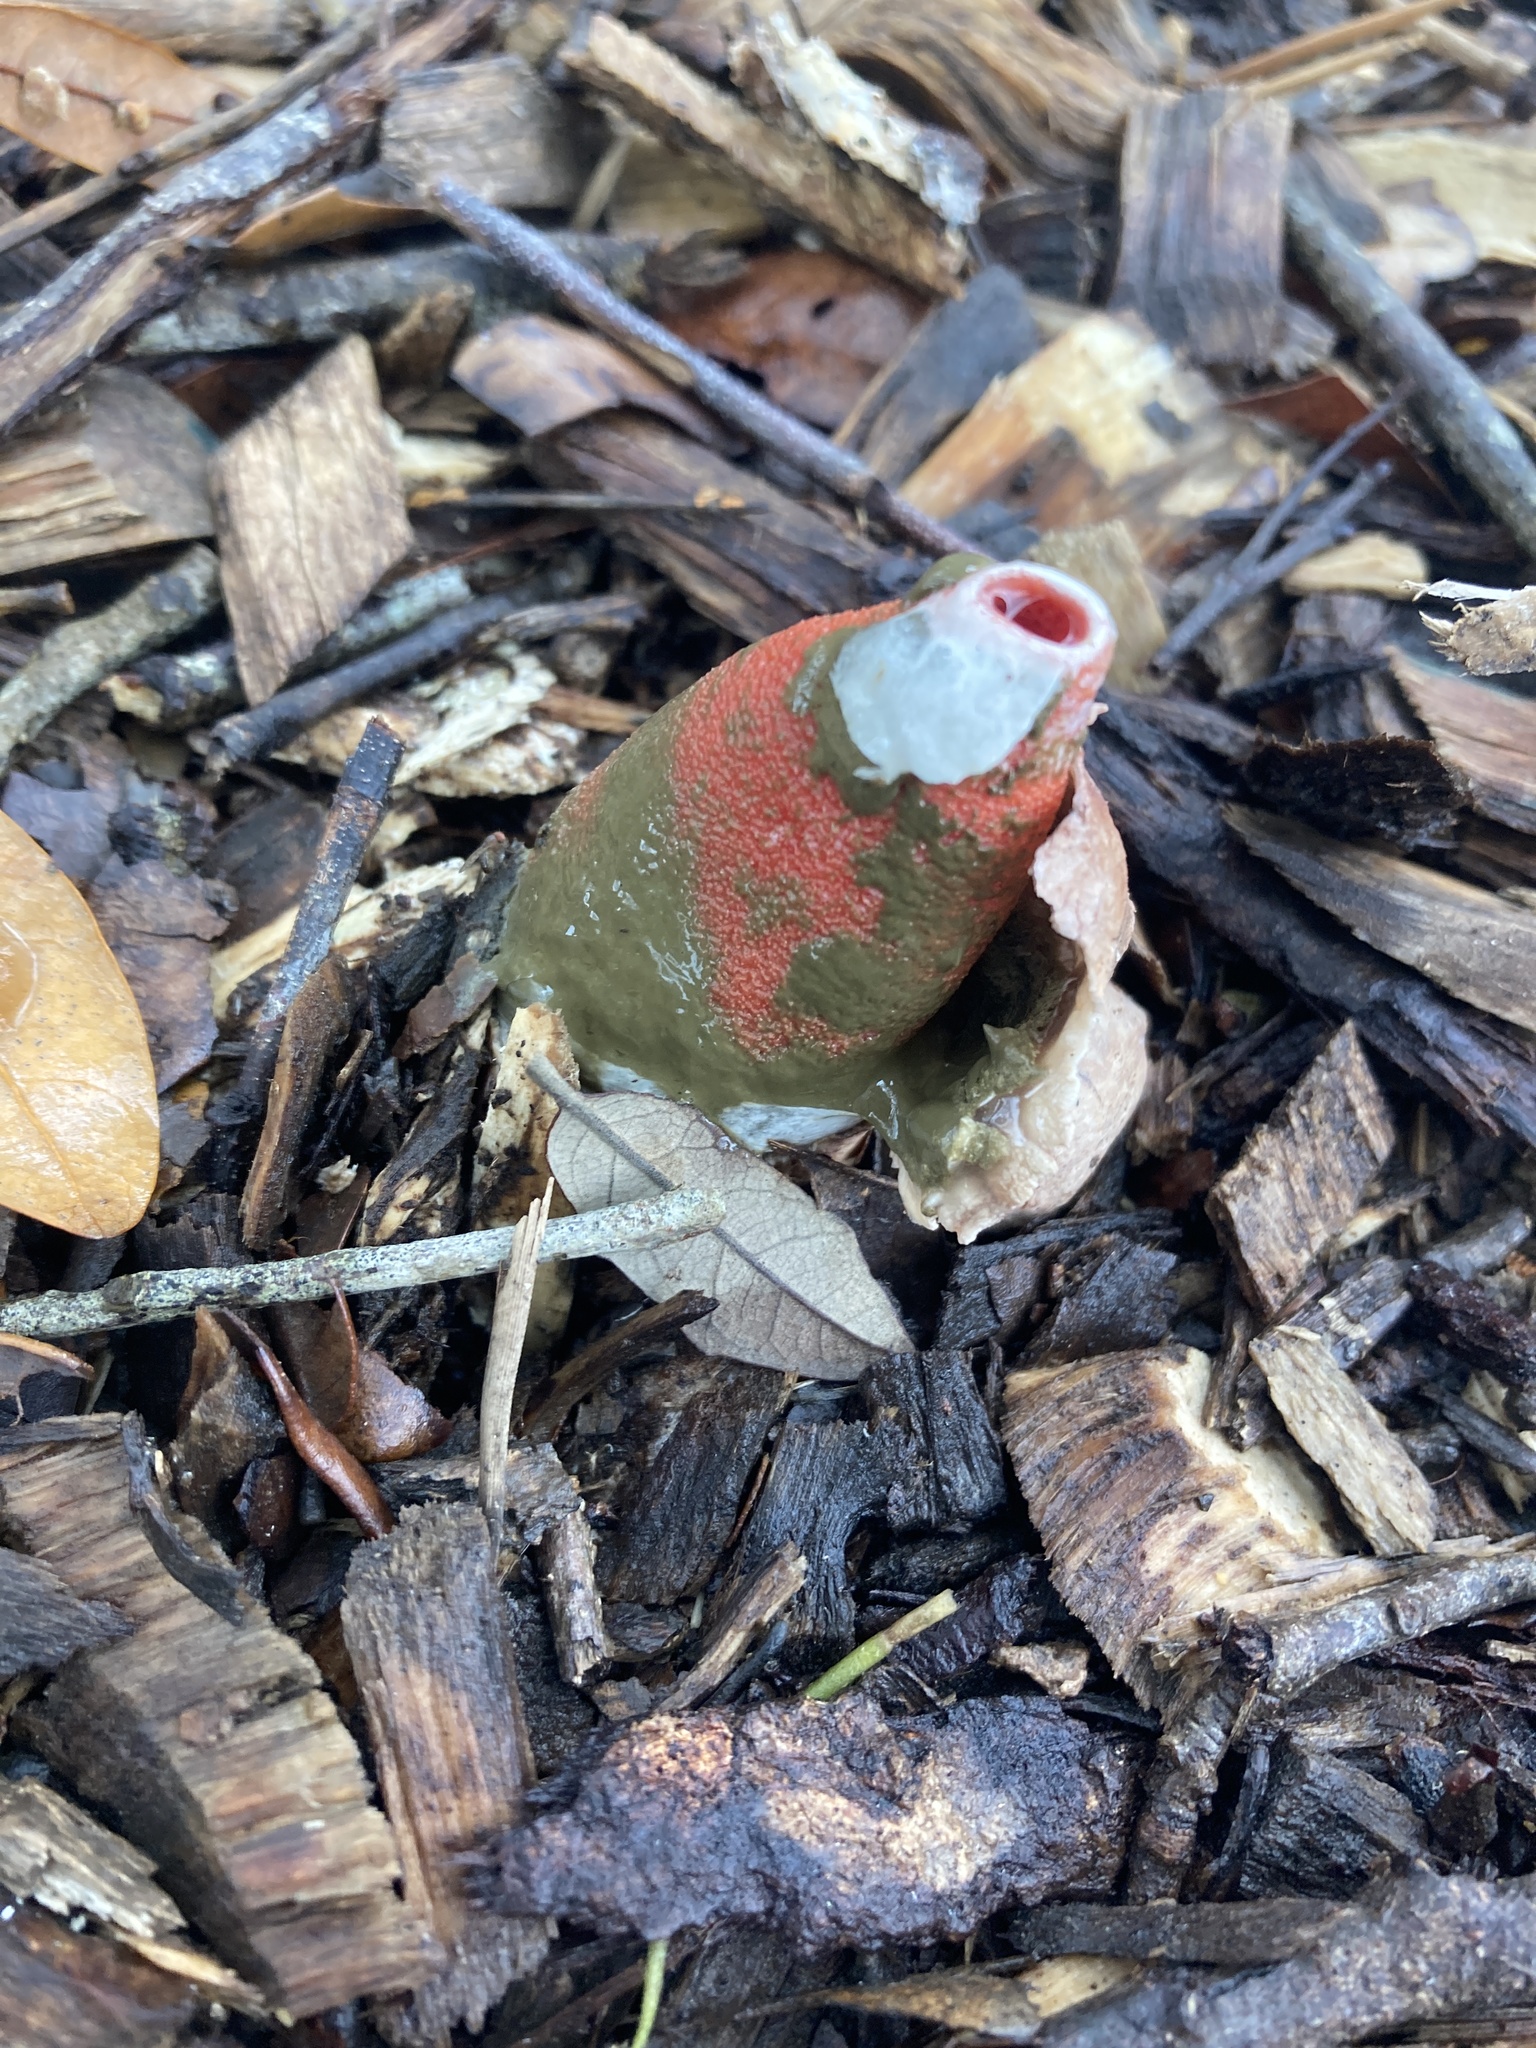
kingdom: Fungi
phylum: Basidiomycota
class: Agaricomycetes
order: Phallales
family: Phallaceae
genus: Mutinus
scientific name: Mutinus elegans
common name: Devil's dipstick
